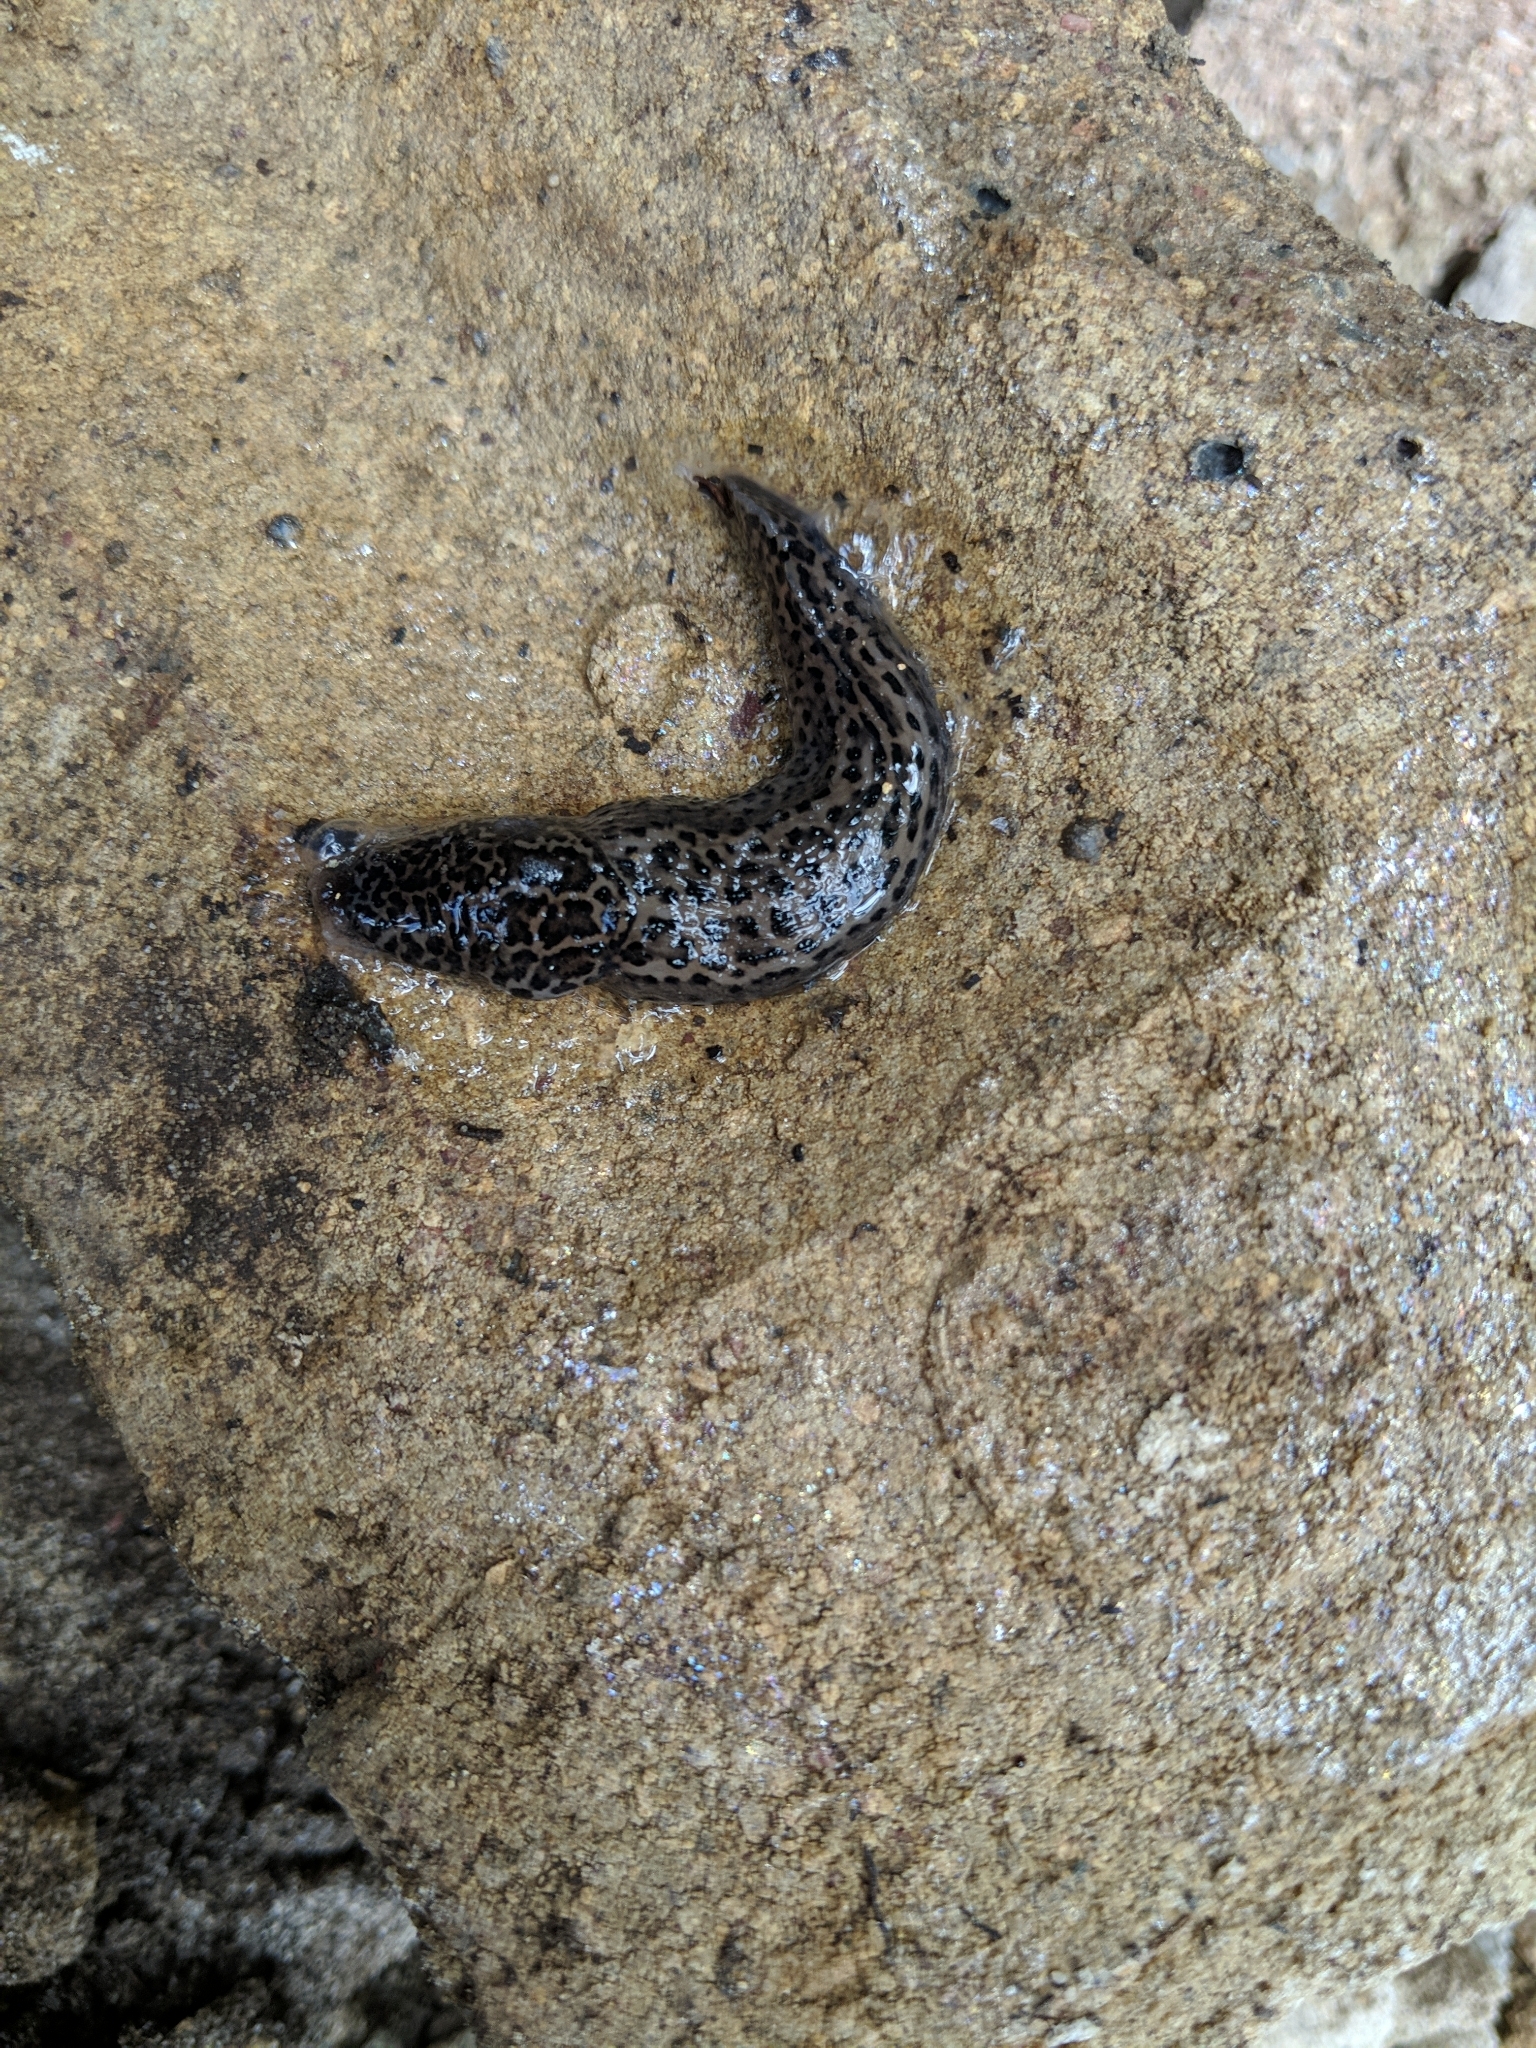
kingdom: Animalia
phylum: Mollusca
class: Gastropoda
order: Stylommatophora
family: Limacidae
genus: Limax
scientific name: Limax maximus
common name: Great grey slug
